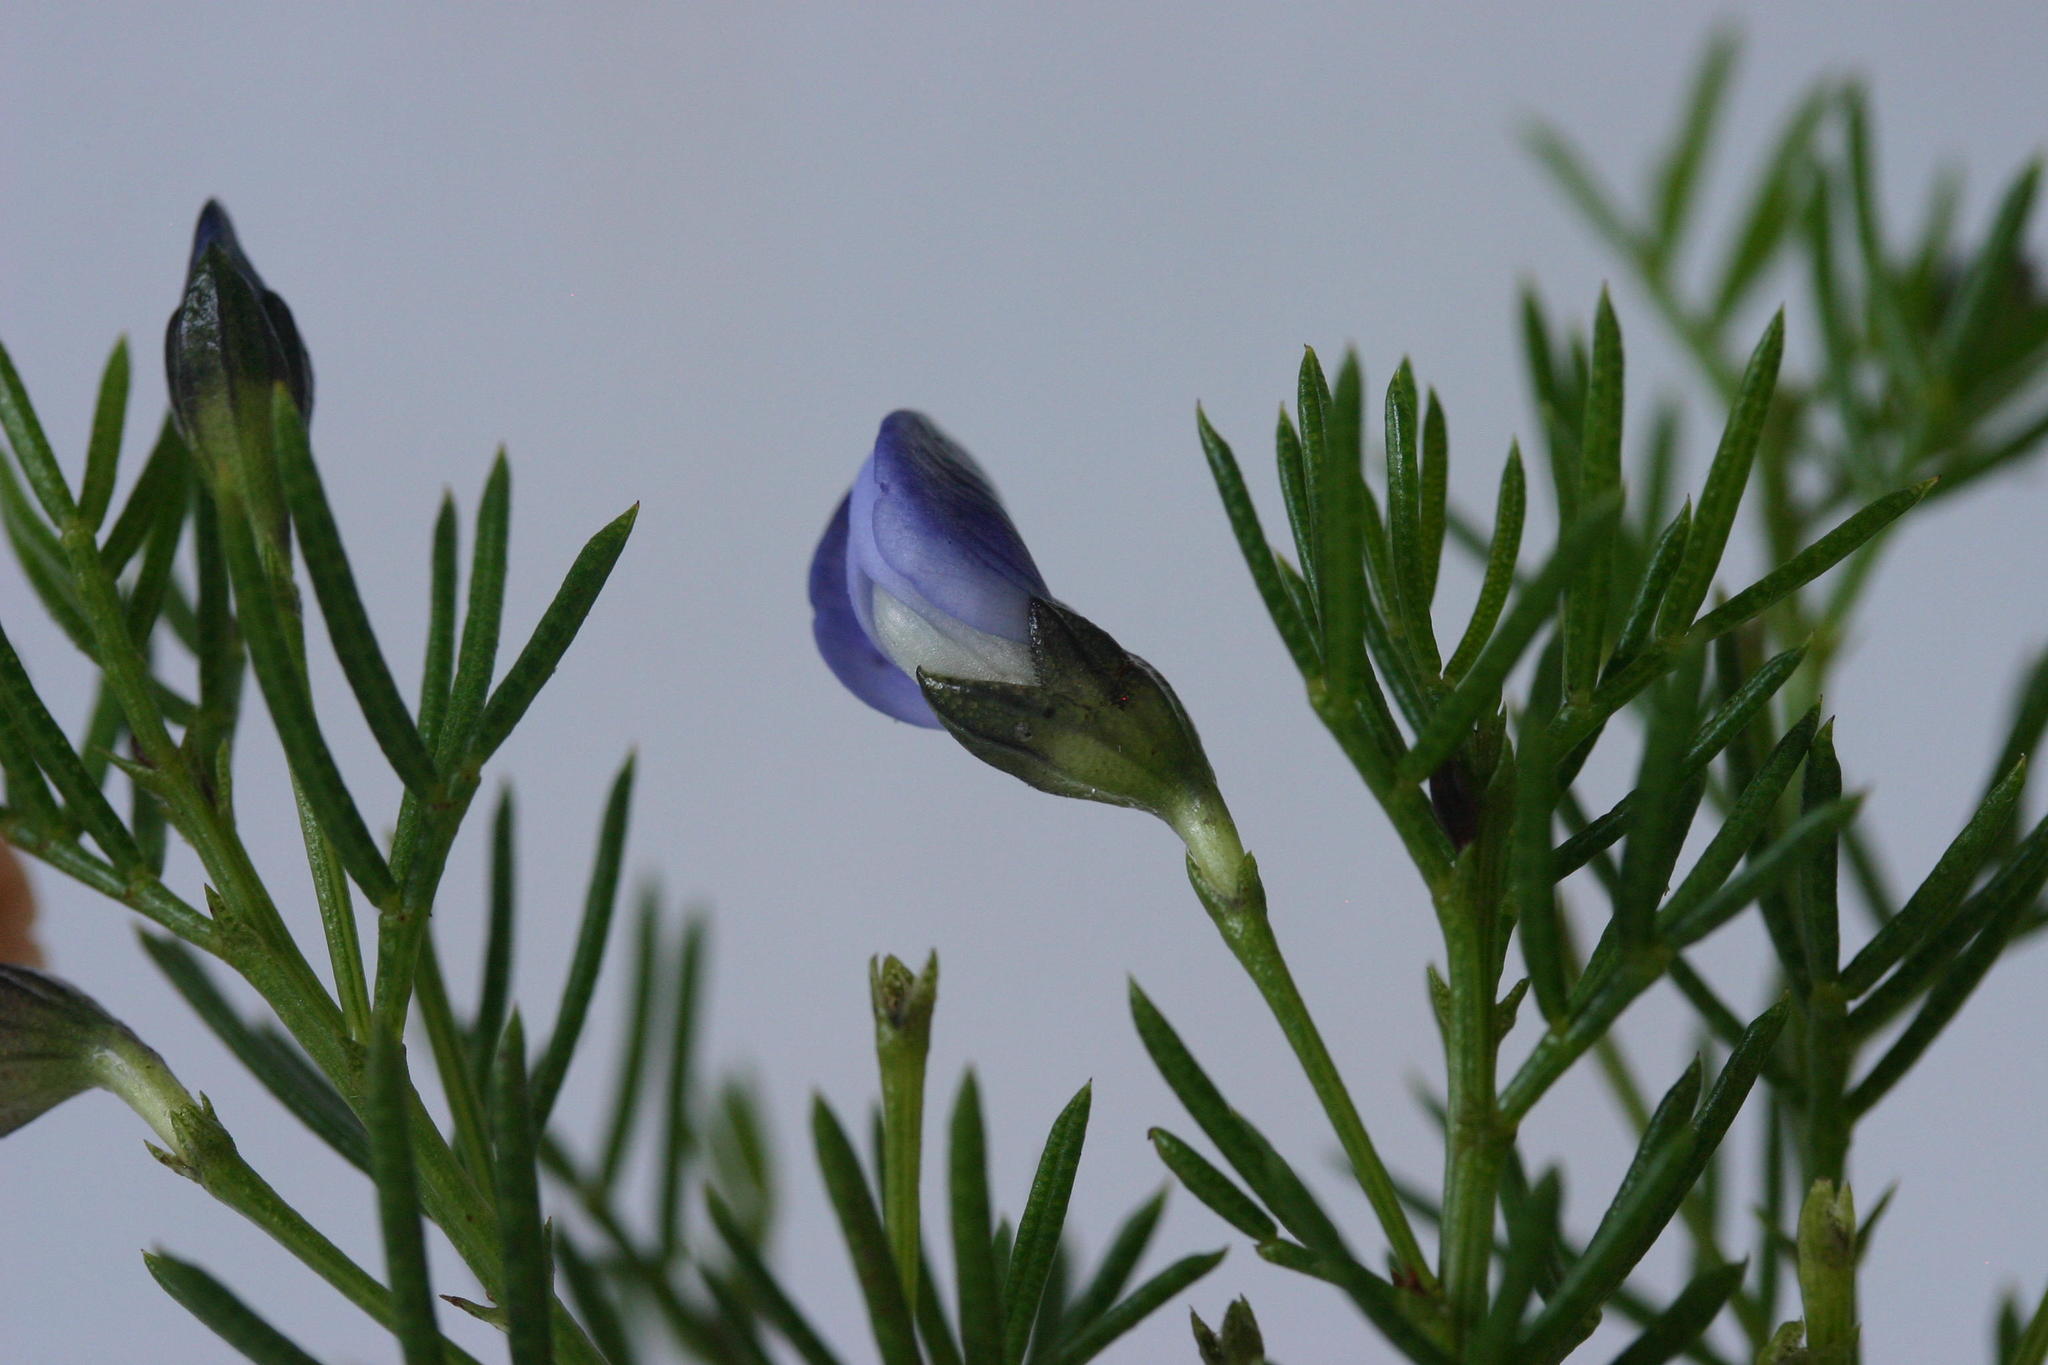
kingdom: Plantae
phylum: Tracheophyta
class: Magnoliopsida
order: Fabales
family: Fabaceae
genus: Psoralea
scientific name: Psoralea laevigata
